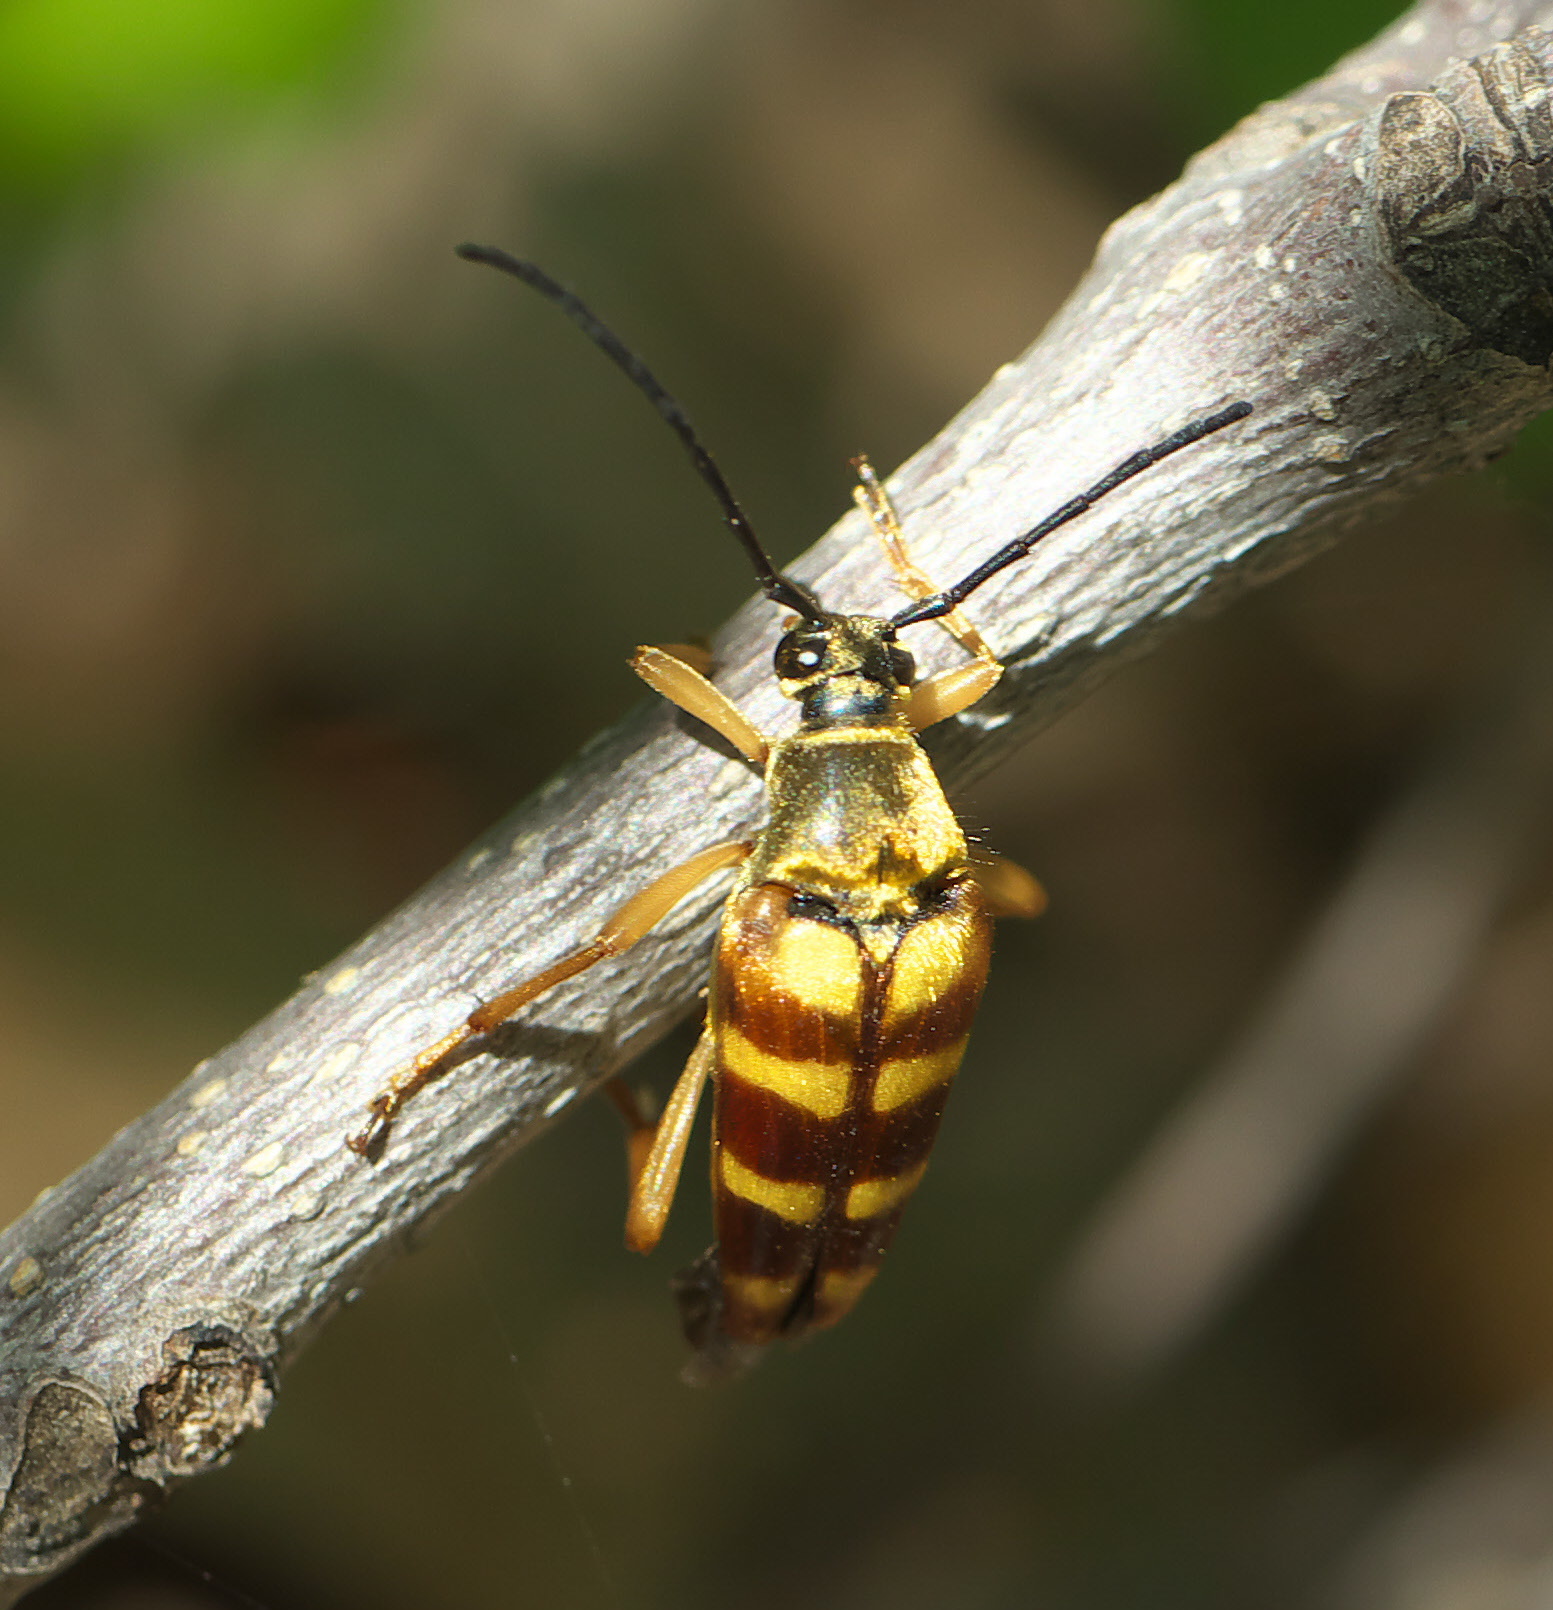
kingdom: Animalia
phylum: Arthropoda
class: Insecta
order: Coleoptera
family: Cerambycidae
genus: Typocerus
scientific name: Typocerus velutinus
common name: Banded longhorn beetle
